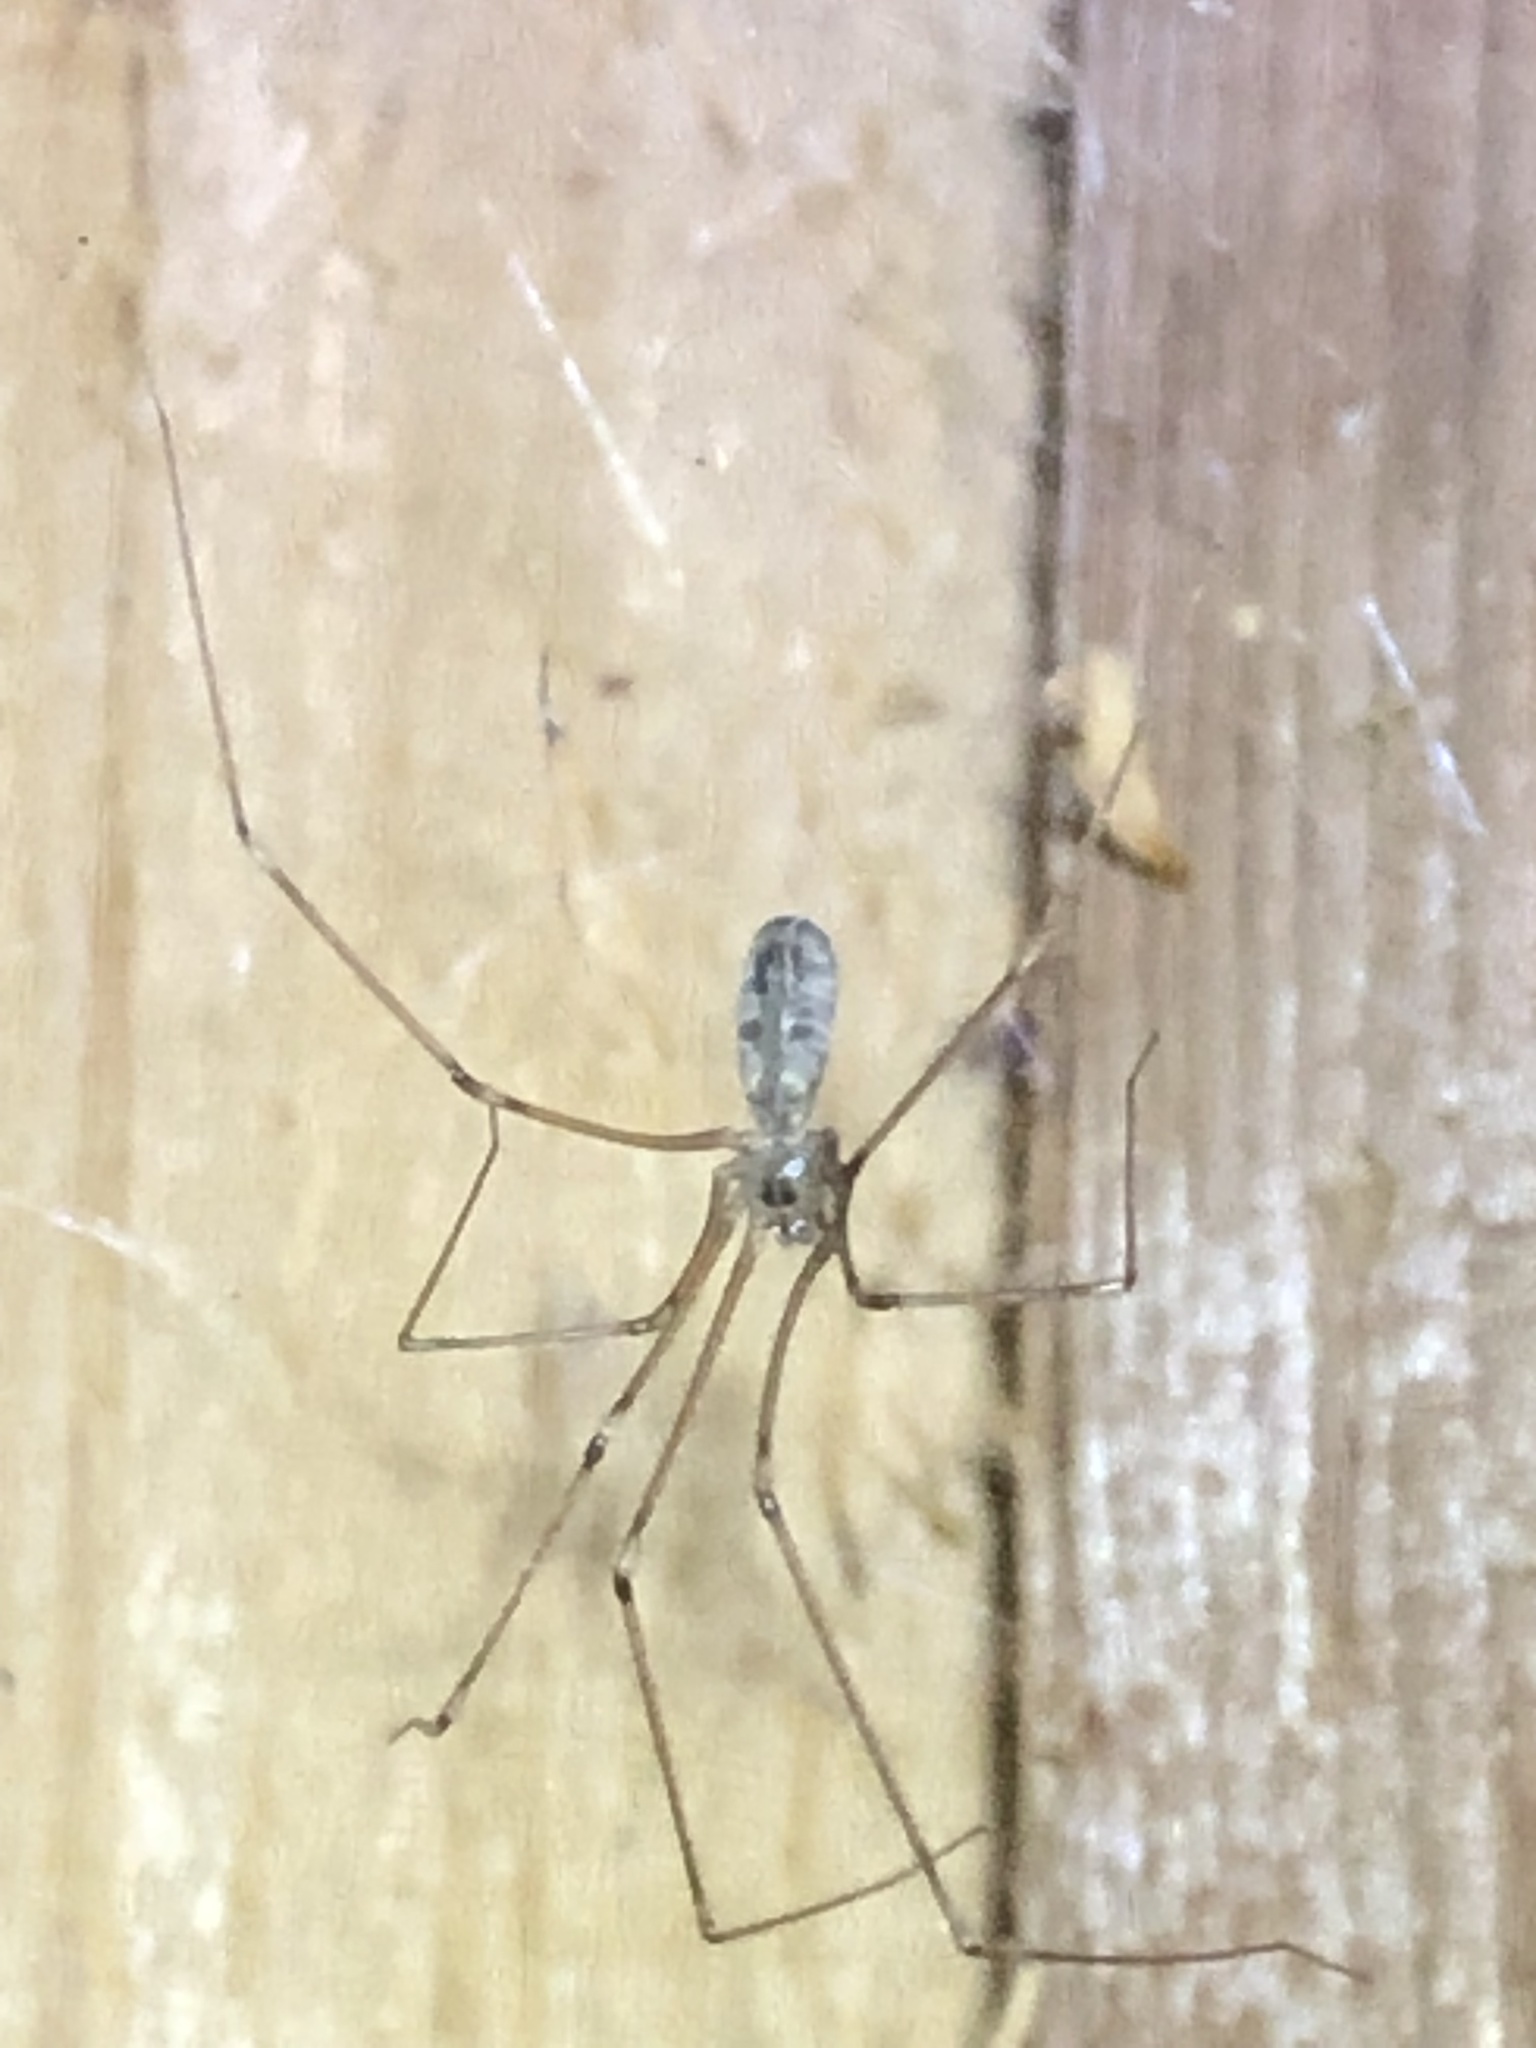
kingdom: Animalia
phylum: Arthropoda
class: Arachnida
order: Araneae
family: Pholcidae
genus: Pholcus
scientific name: Pholcus phalangioides
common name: Longbodied cellar spider
